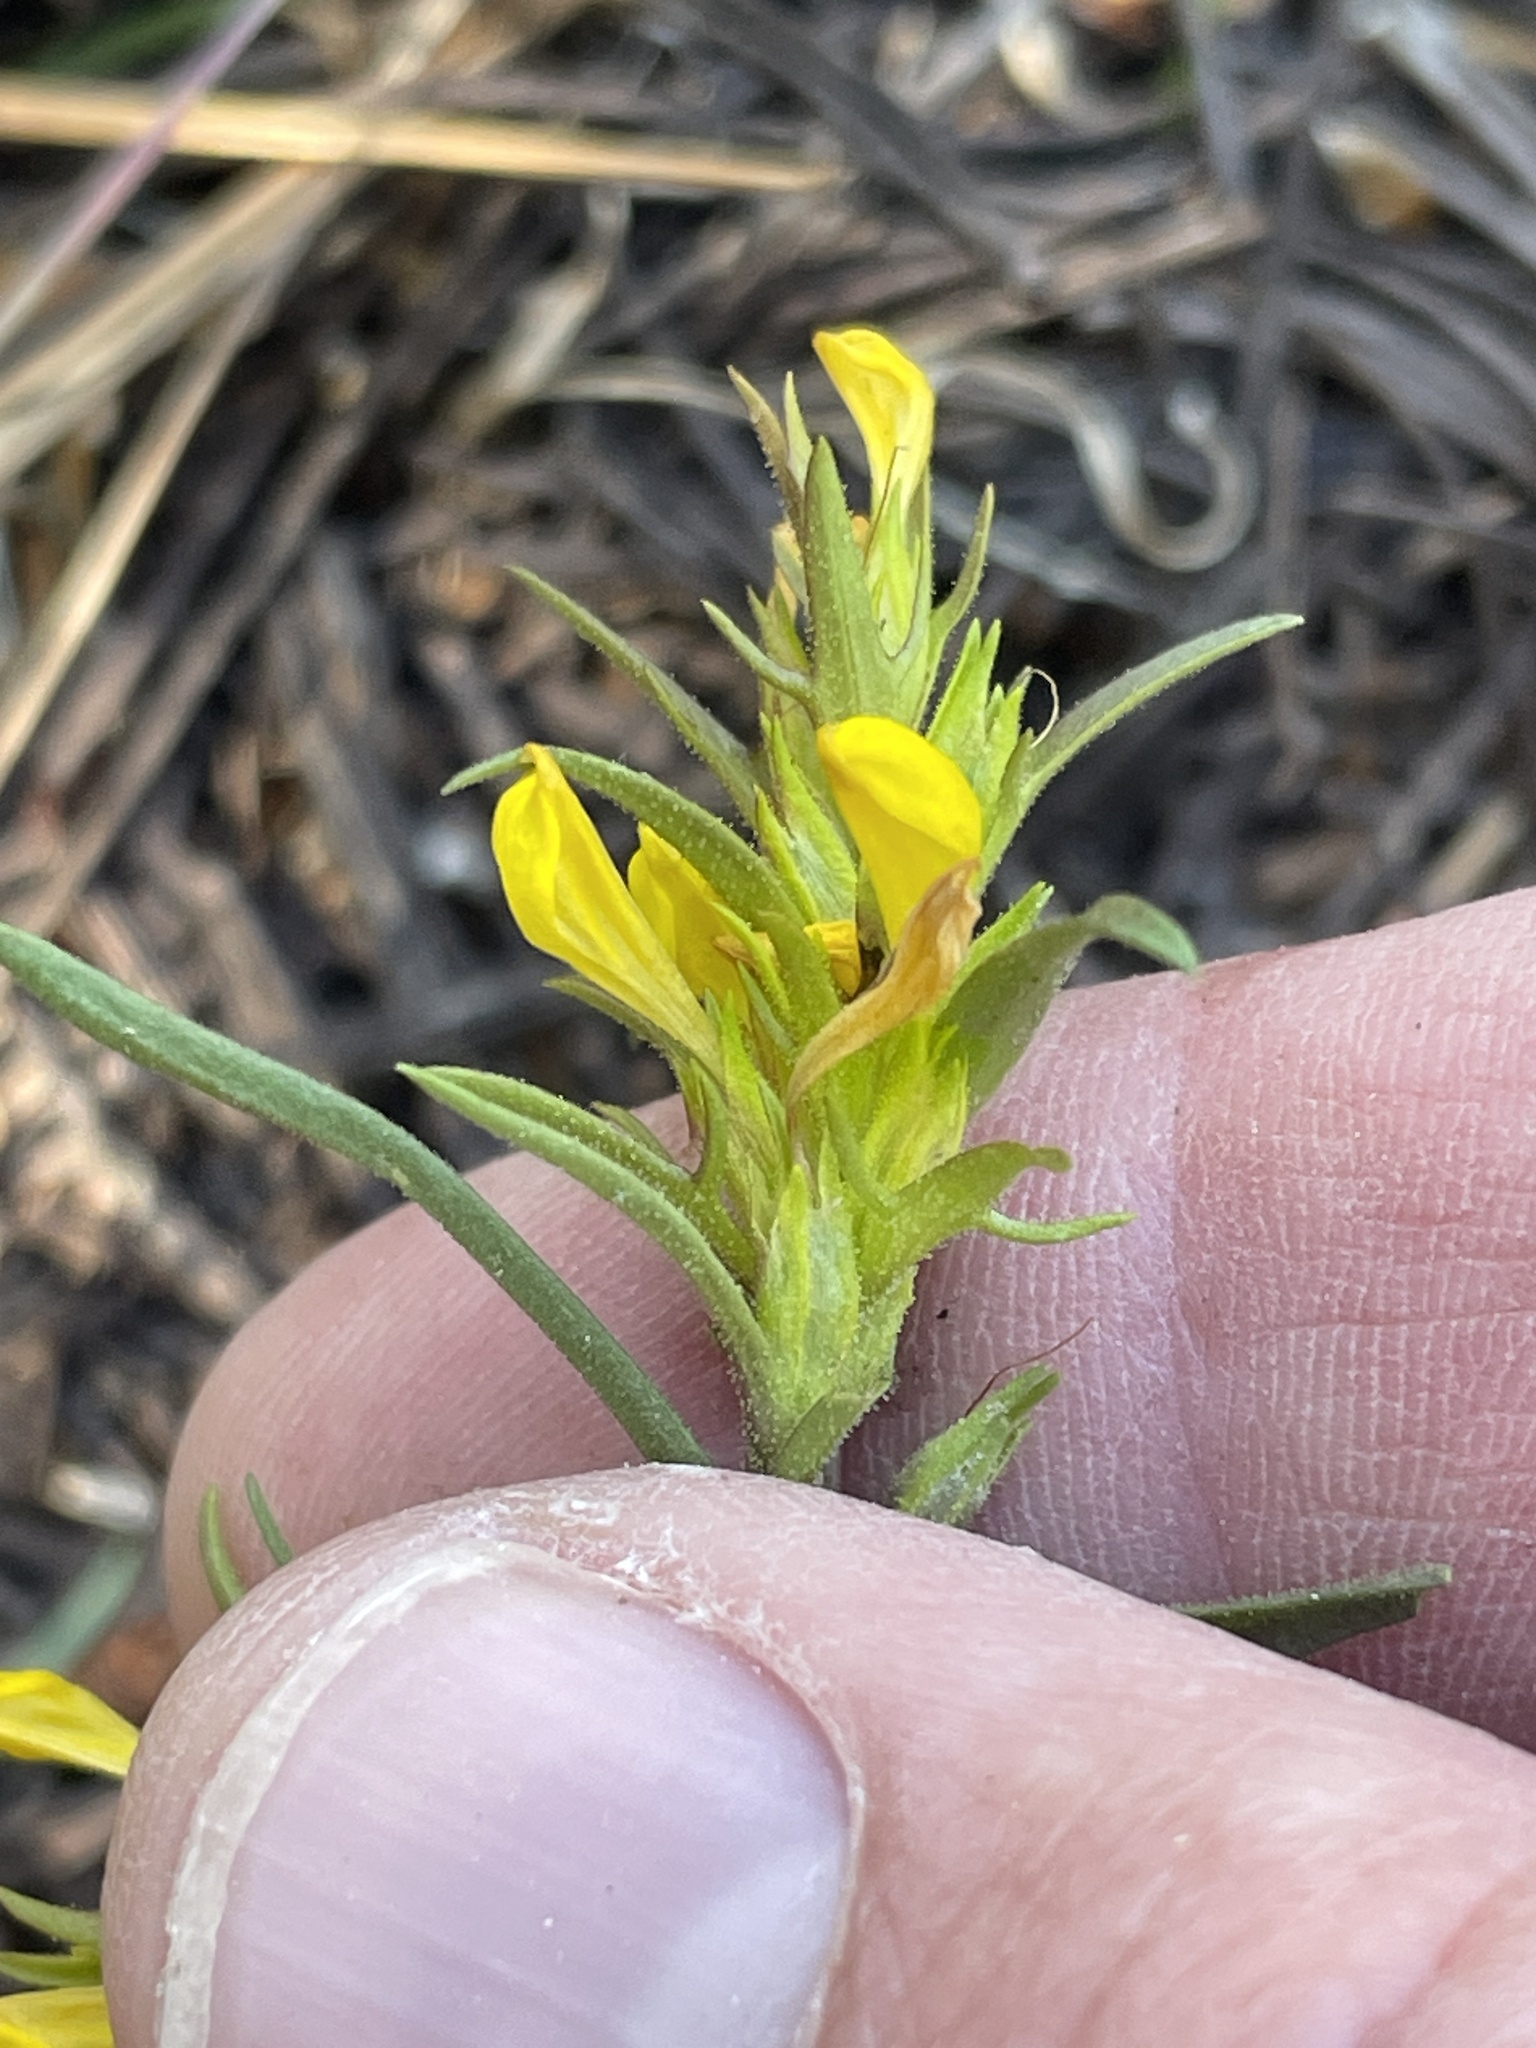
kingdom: Plantae
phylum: Tracheophyta
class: Magnoliopsida
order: Lamiales
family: Orobanchaceae
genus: Orthocarpus
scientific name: Orthocarpus tolmiei
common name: Tolmie's owl-clover
